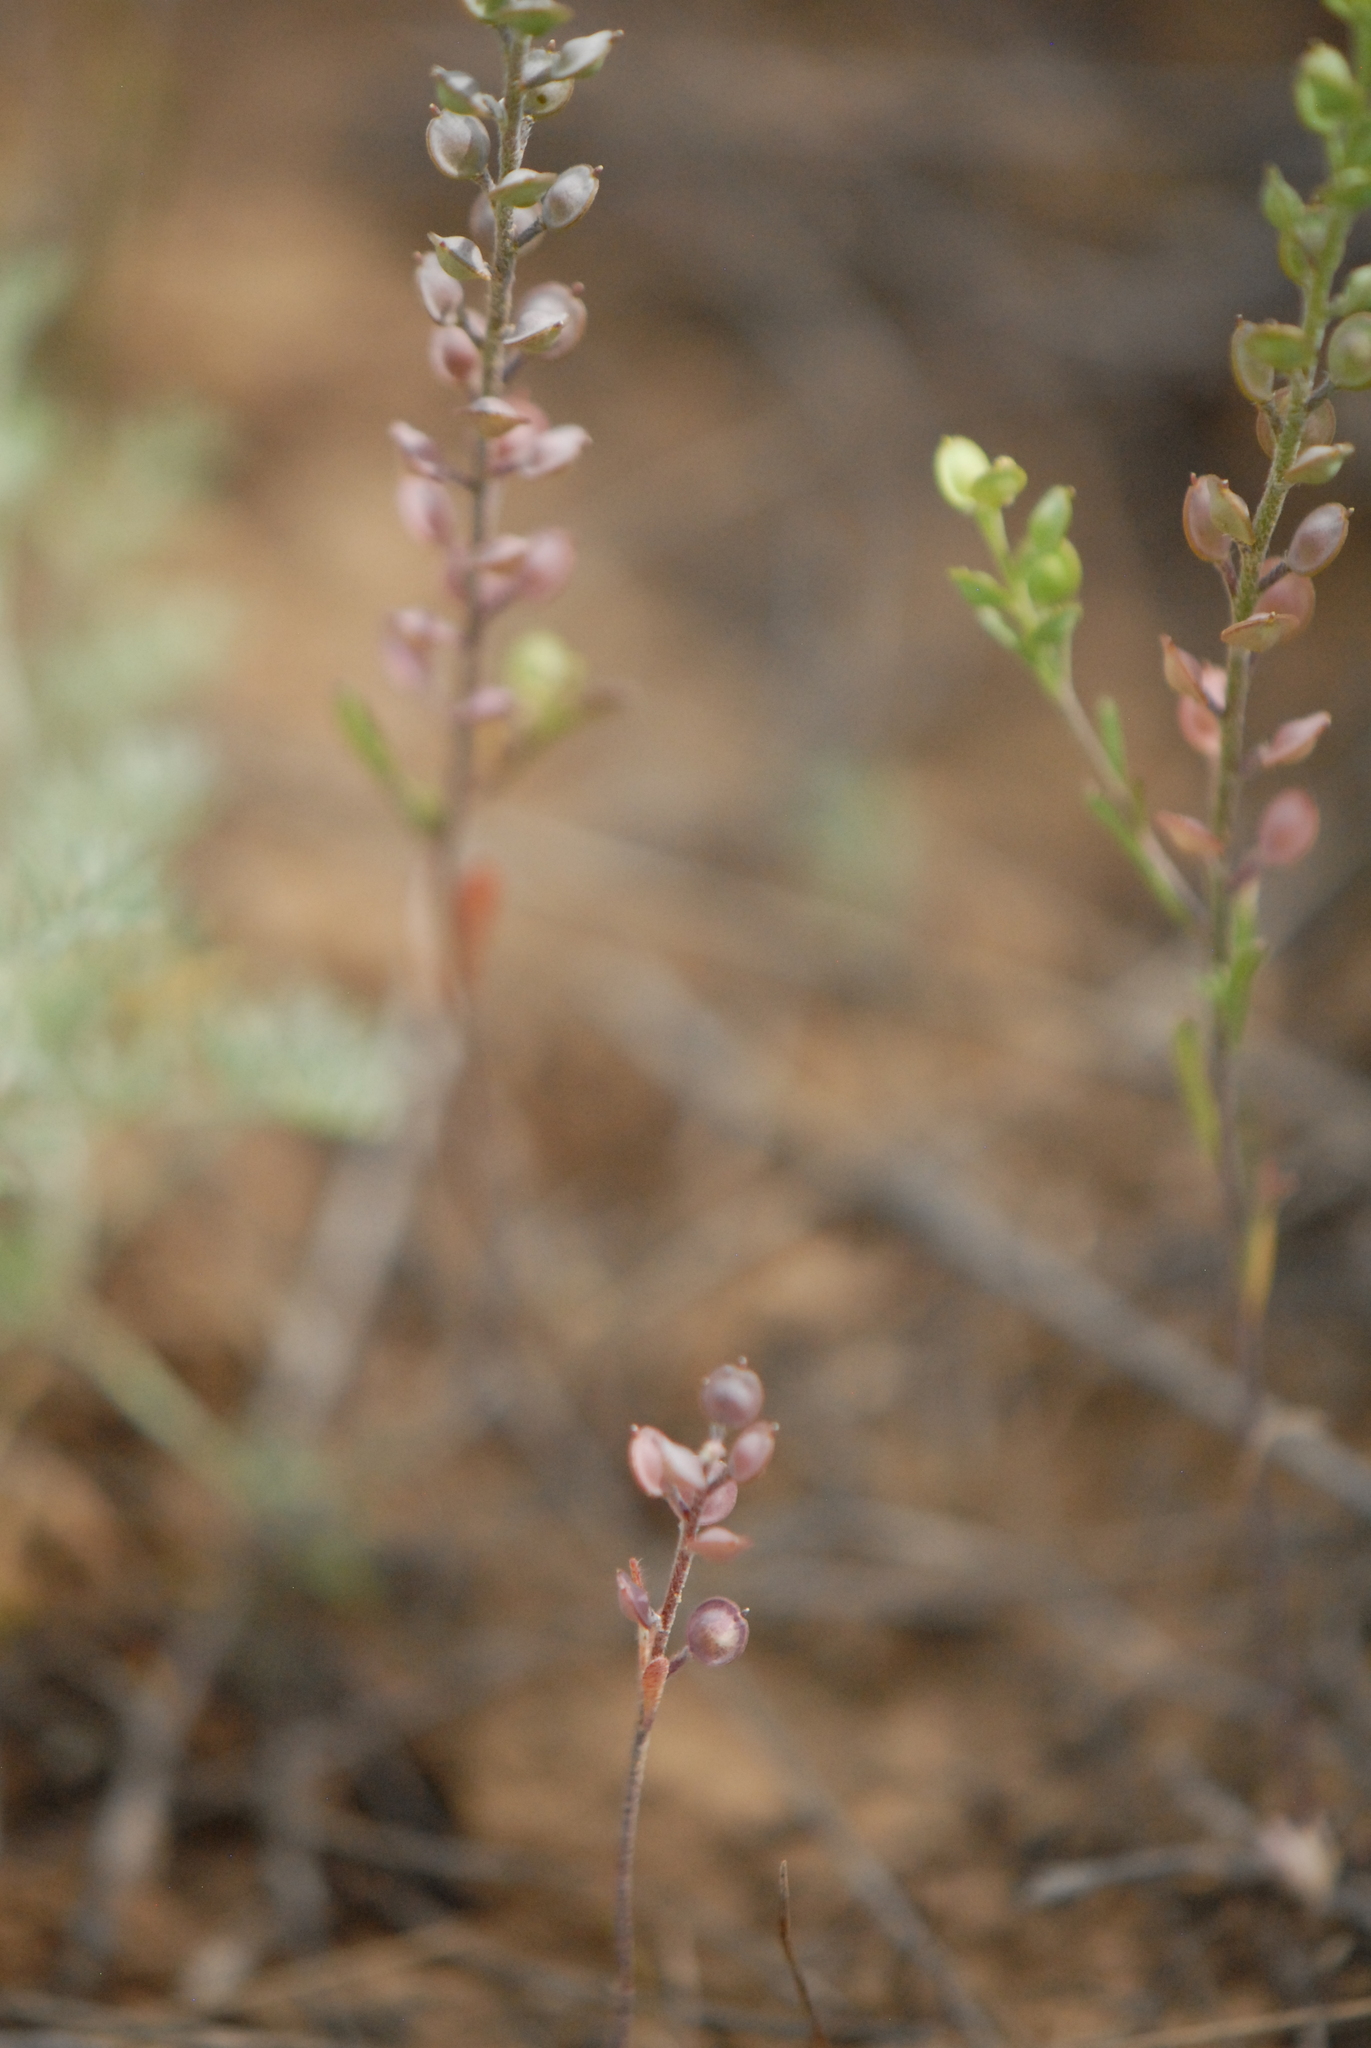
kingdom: Plantae
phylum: Tracheophyta
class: Magnoliopsida
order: Brassicales
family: Brassicaceae
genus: Alyssum
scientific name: Alyssum turkestanicum
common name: Desert alyssum
